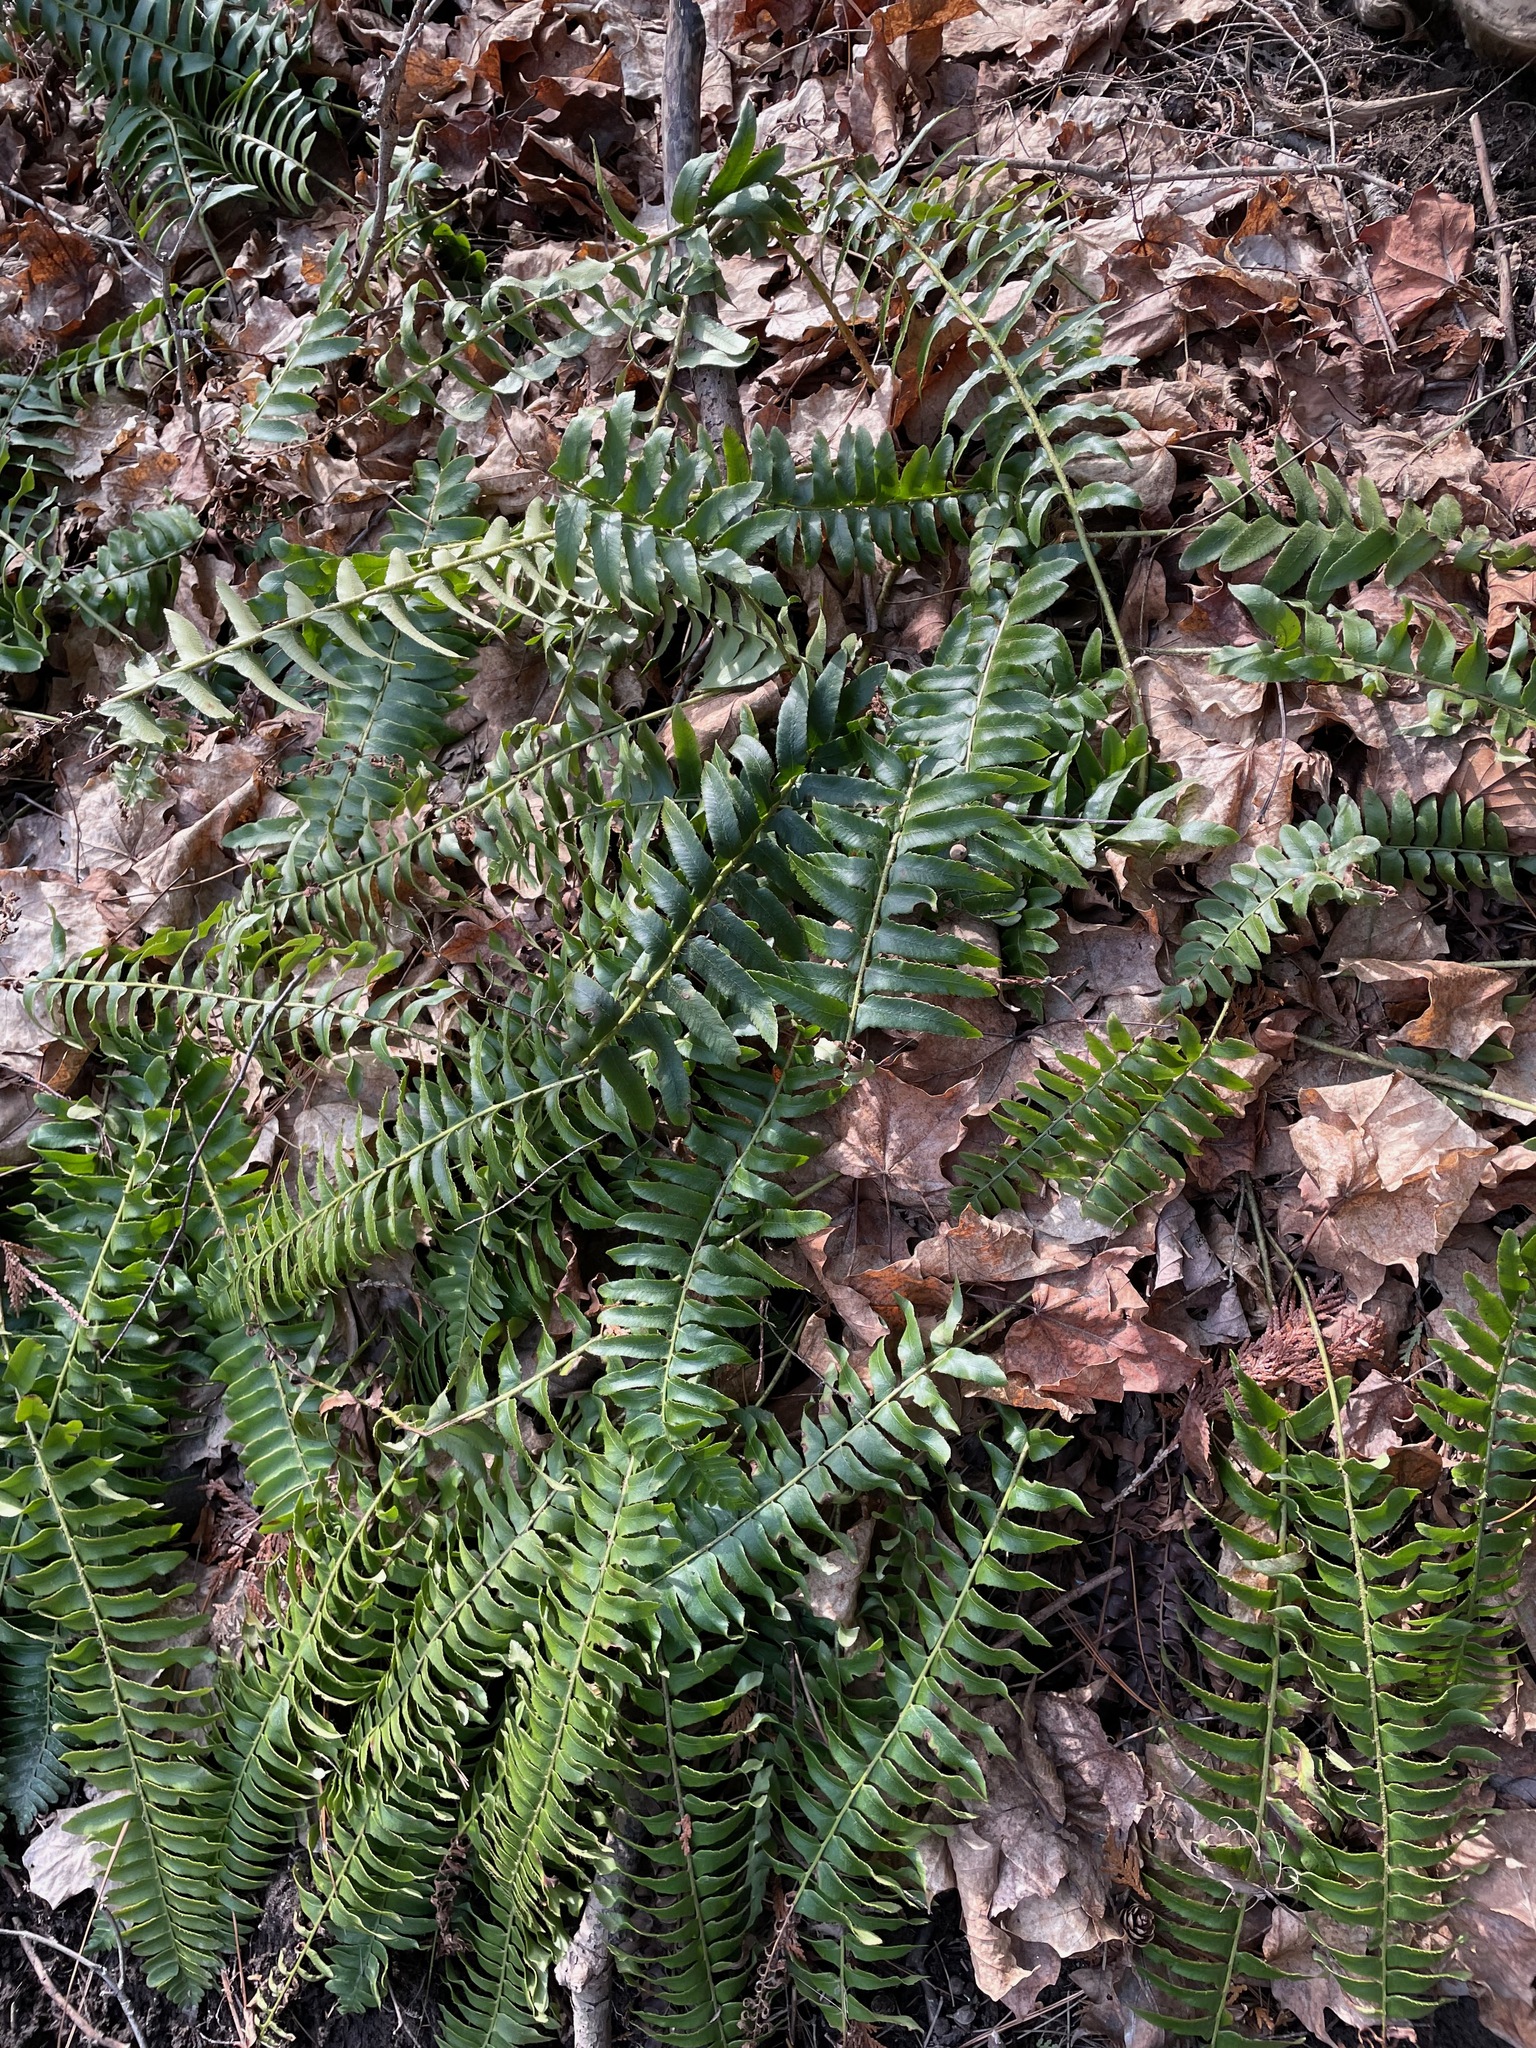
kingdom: Plantae
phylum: Tracheophyta
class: Polypodiopsida
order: Polypodiales
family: Dryopteridaceae
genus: Polystichum
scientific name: Polystichum acrostichoides
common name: Christmas fern
